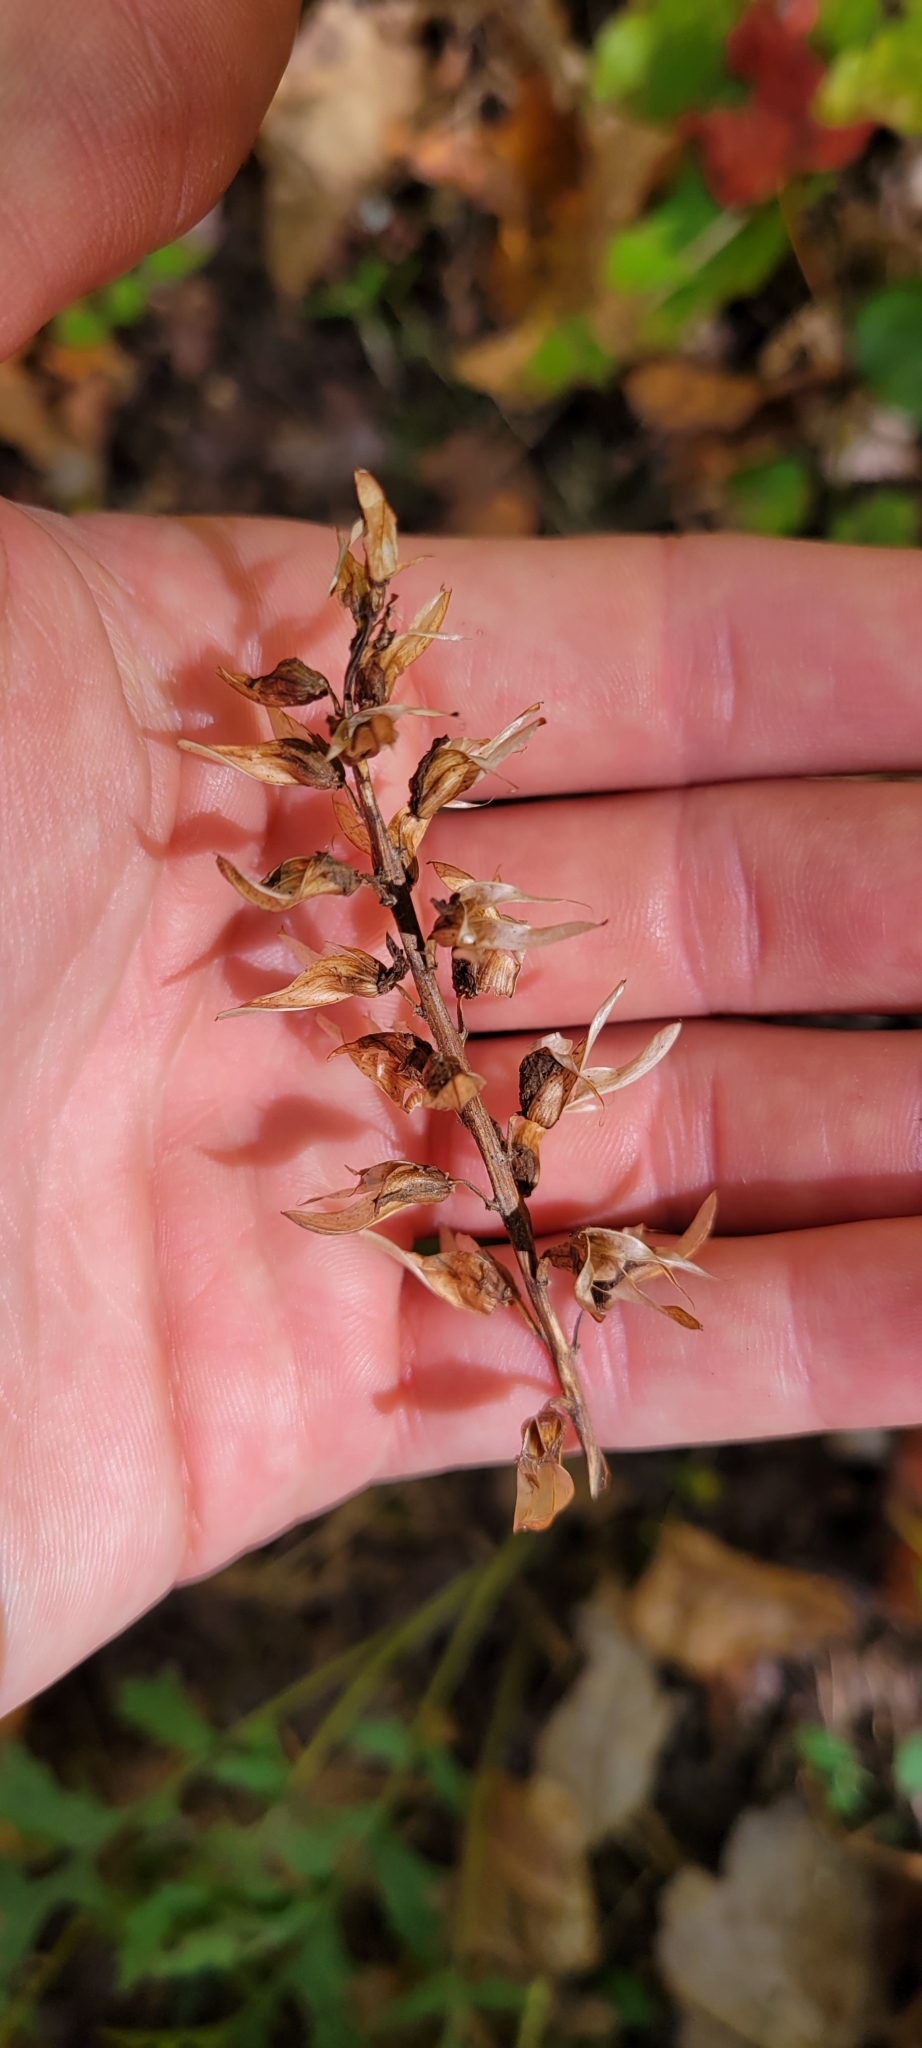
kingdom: Plantae
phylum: Tracheophyta
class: Magnoliopsida
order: Lamiales
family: Orobanchaceae
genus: Pedicularis
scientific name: Pedicularis canadensis
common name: Early lousewort
